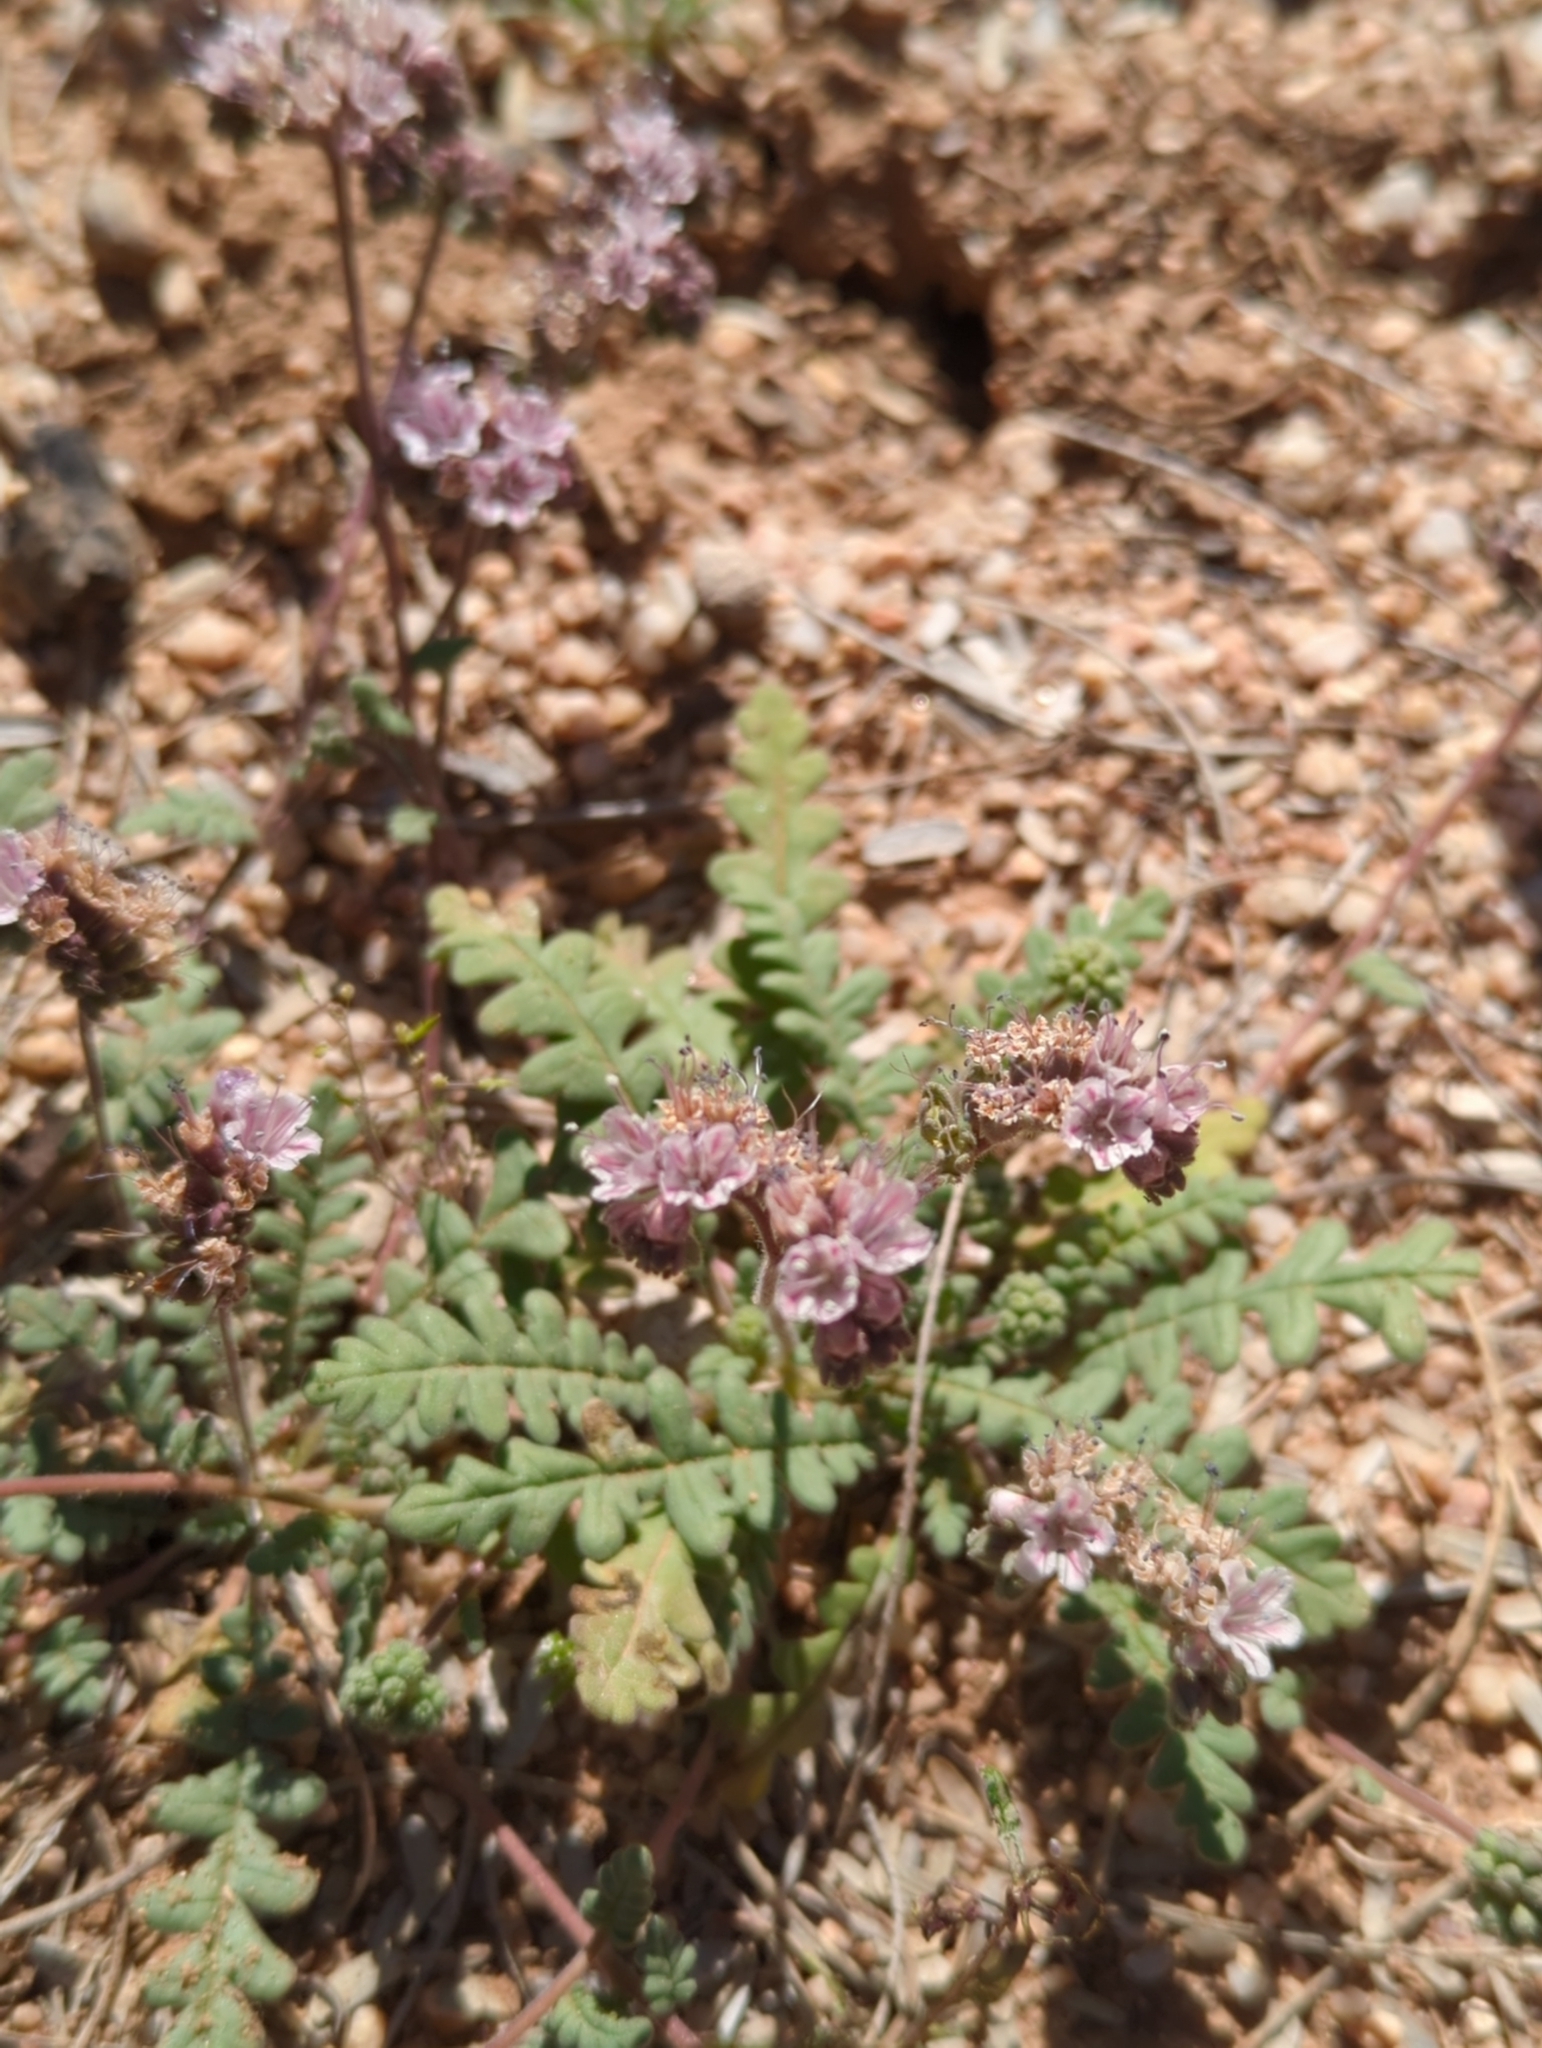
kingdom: Plantae
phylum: Tracheophyta
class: Magnoliopsida
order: Boraginales
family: Hydrophyllaceae
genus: Phacelia
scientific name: Phacelia arizonica
